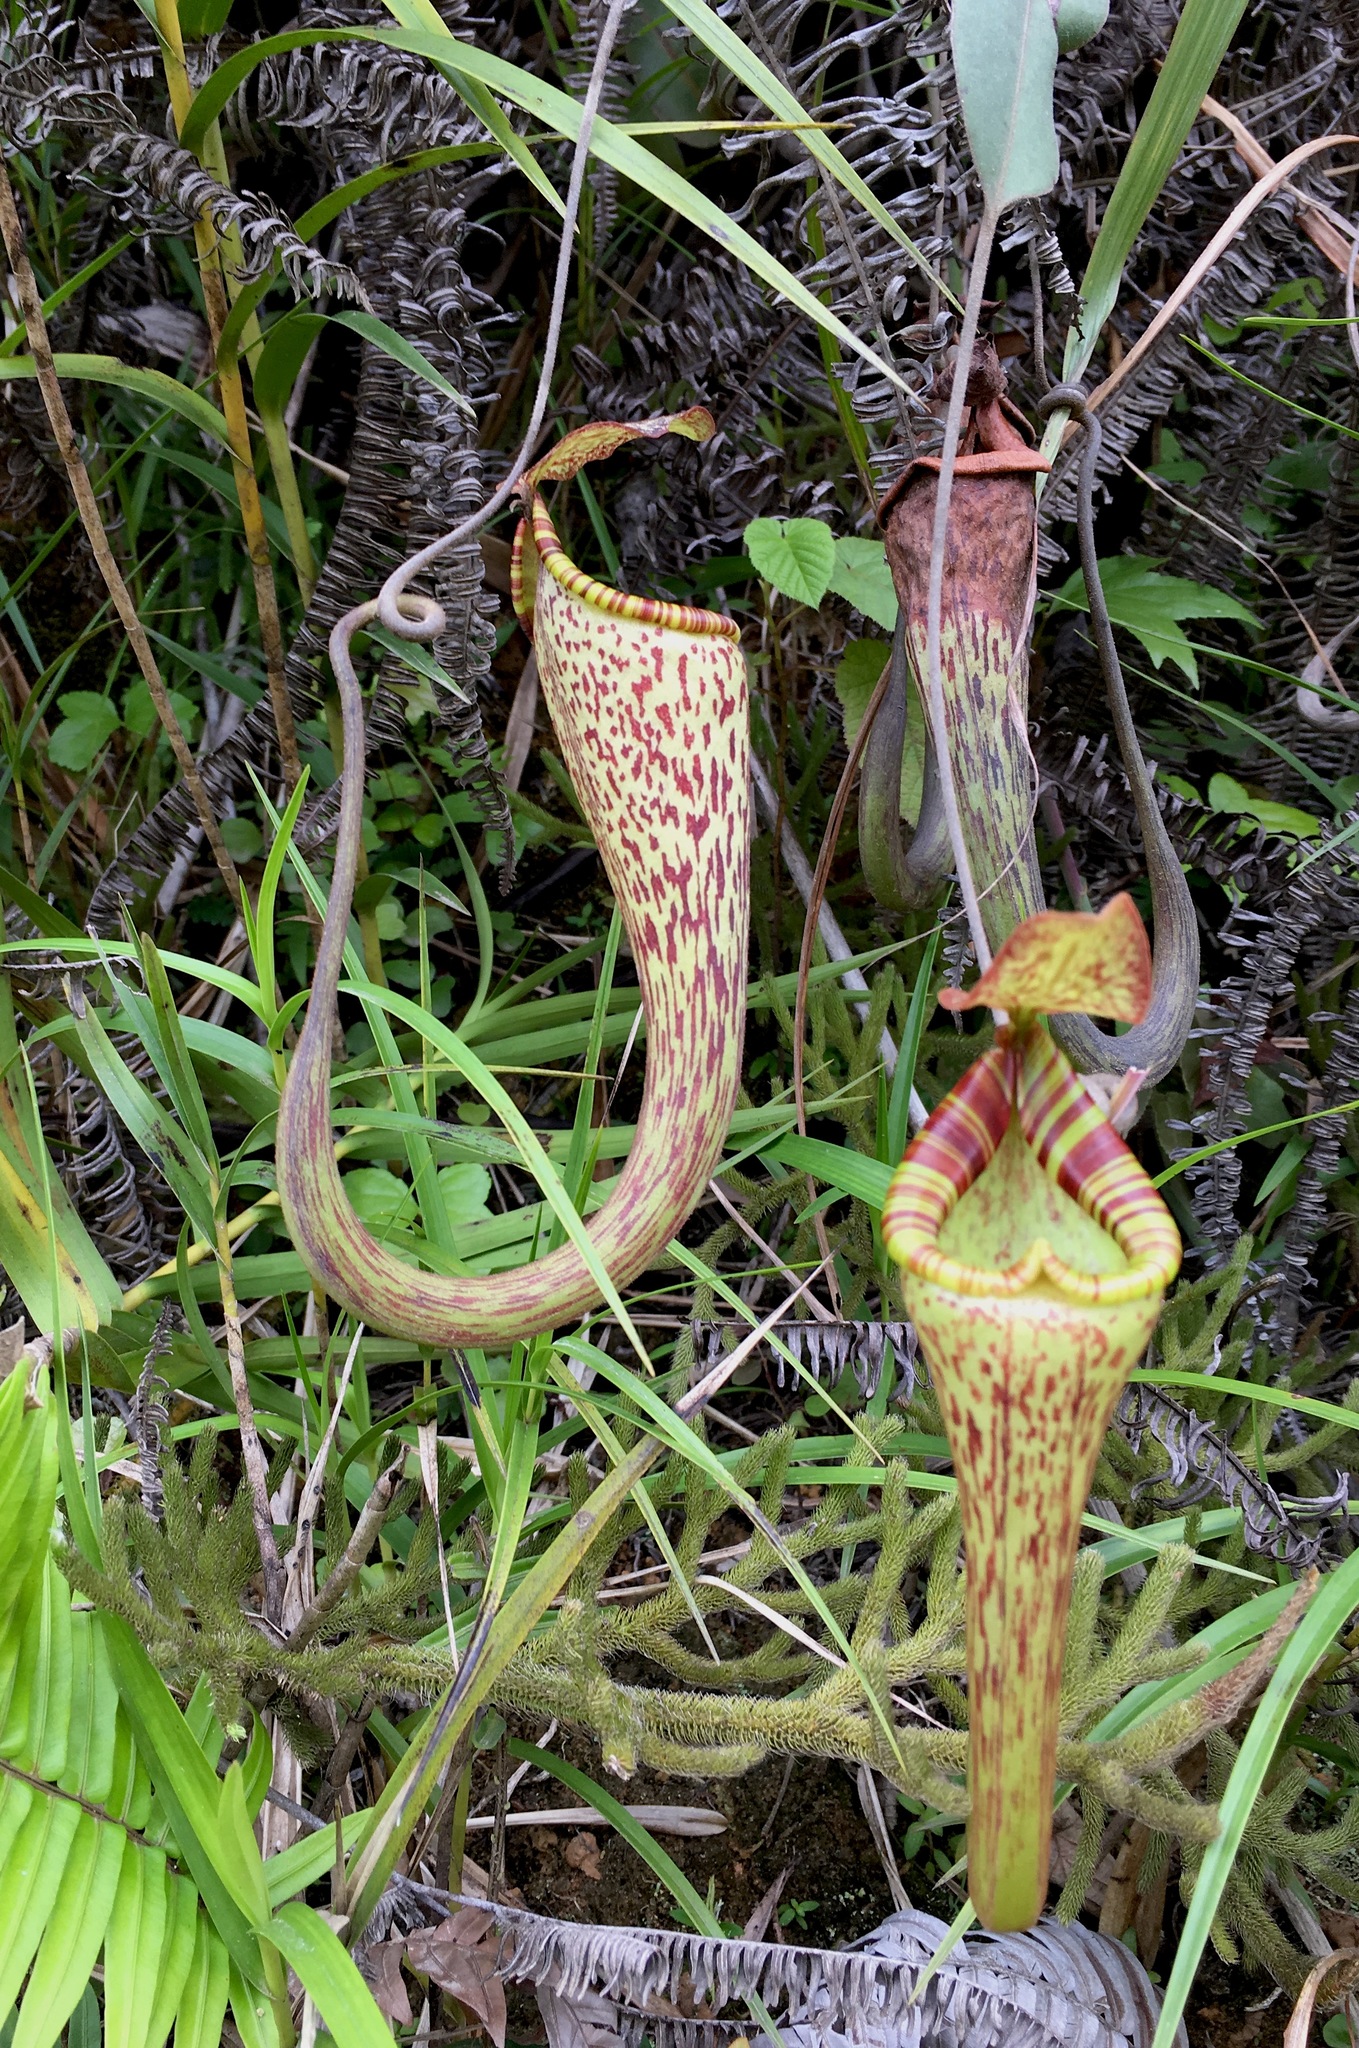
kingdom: Plantae
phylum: Tracheophyta
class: Magnoliopsida
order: Caryophyllales
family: Nepenthaceae
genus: Nepenthes
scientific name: Nepenthes vogelii
